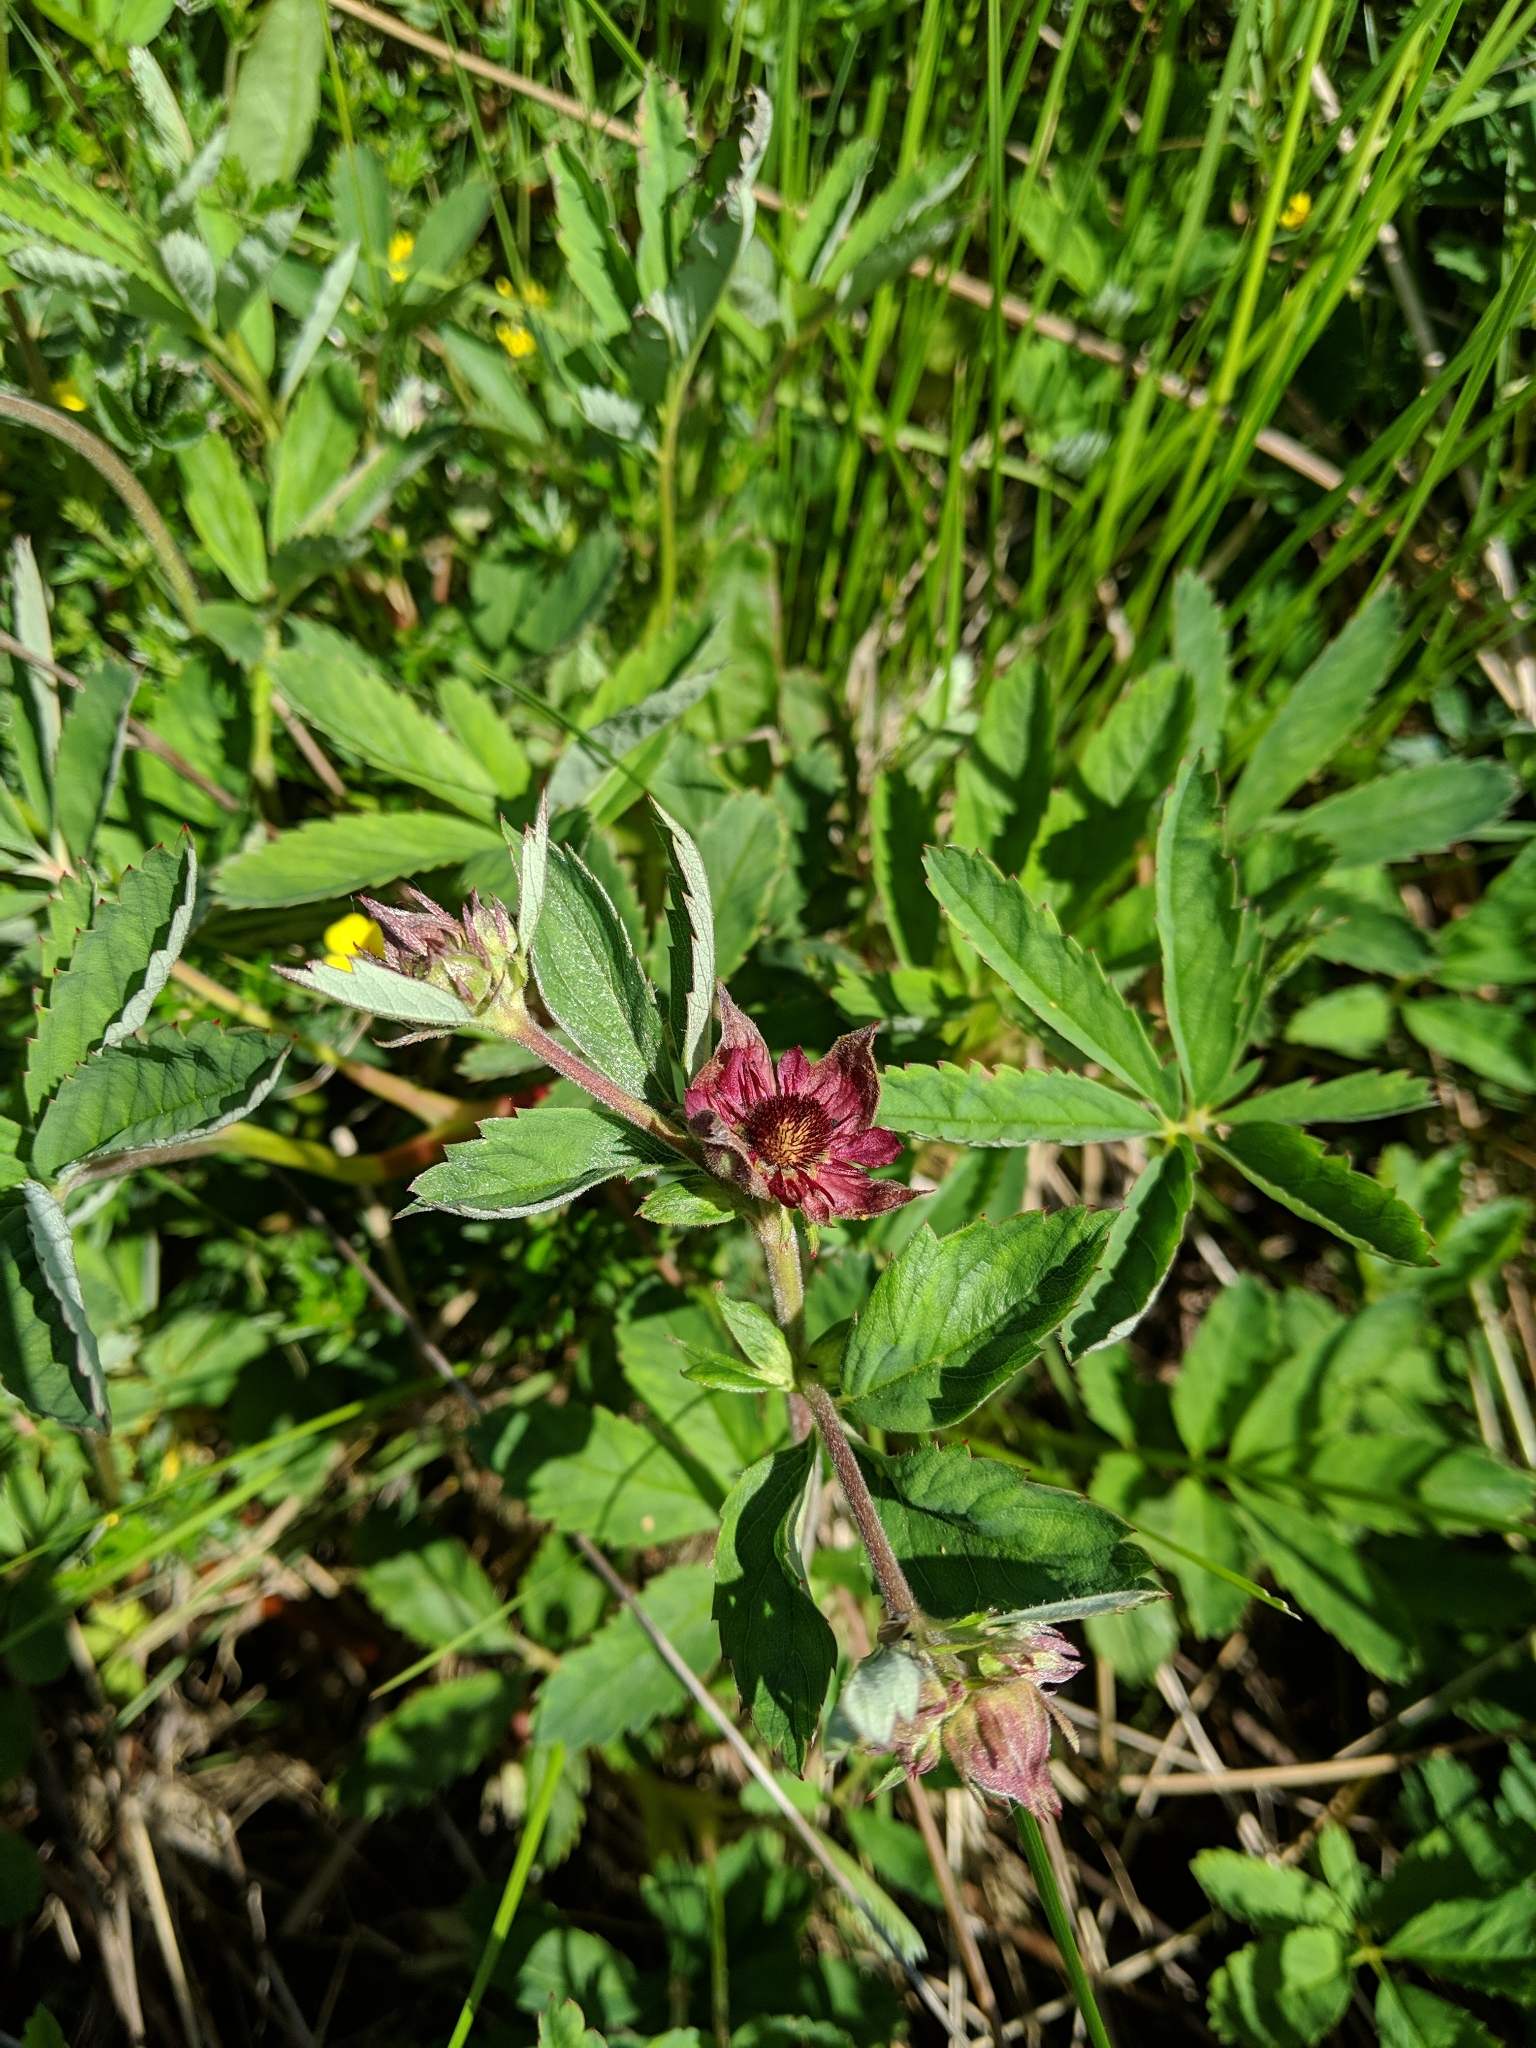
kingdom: Plantae
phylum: Tracheophyta
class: Magnoliopsida
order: Rosales
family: Rosaceae
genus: Comarum
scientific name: Comarum palustre
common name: Marsh cinquefoil
